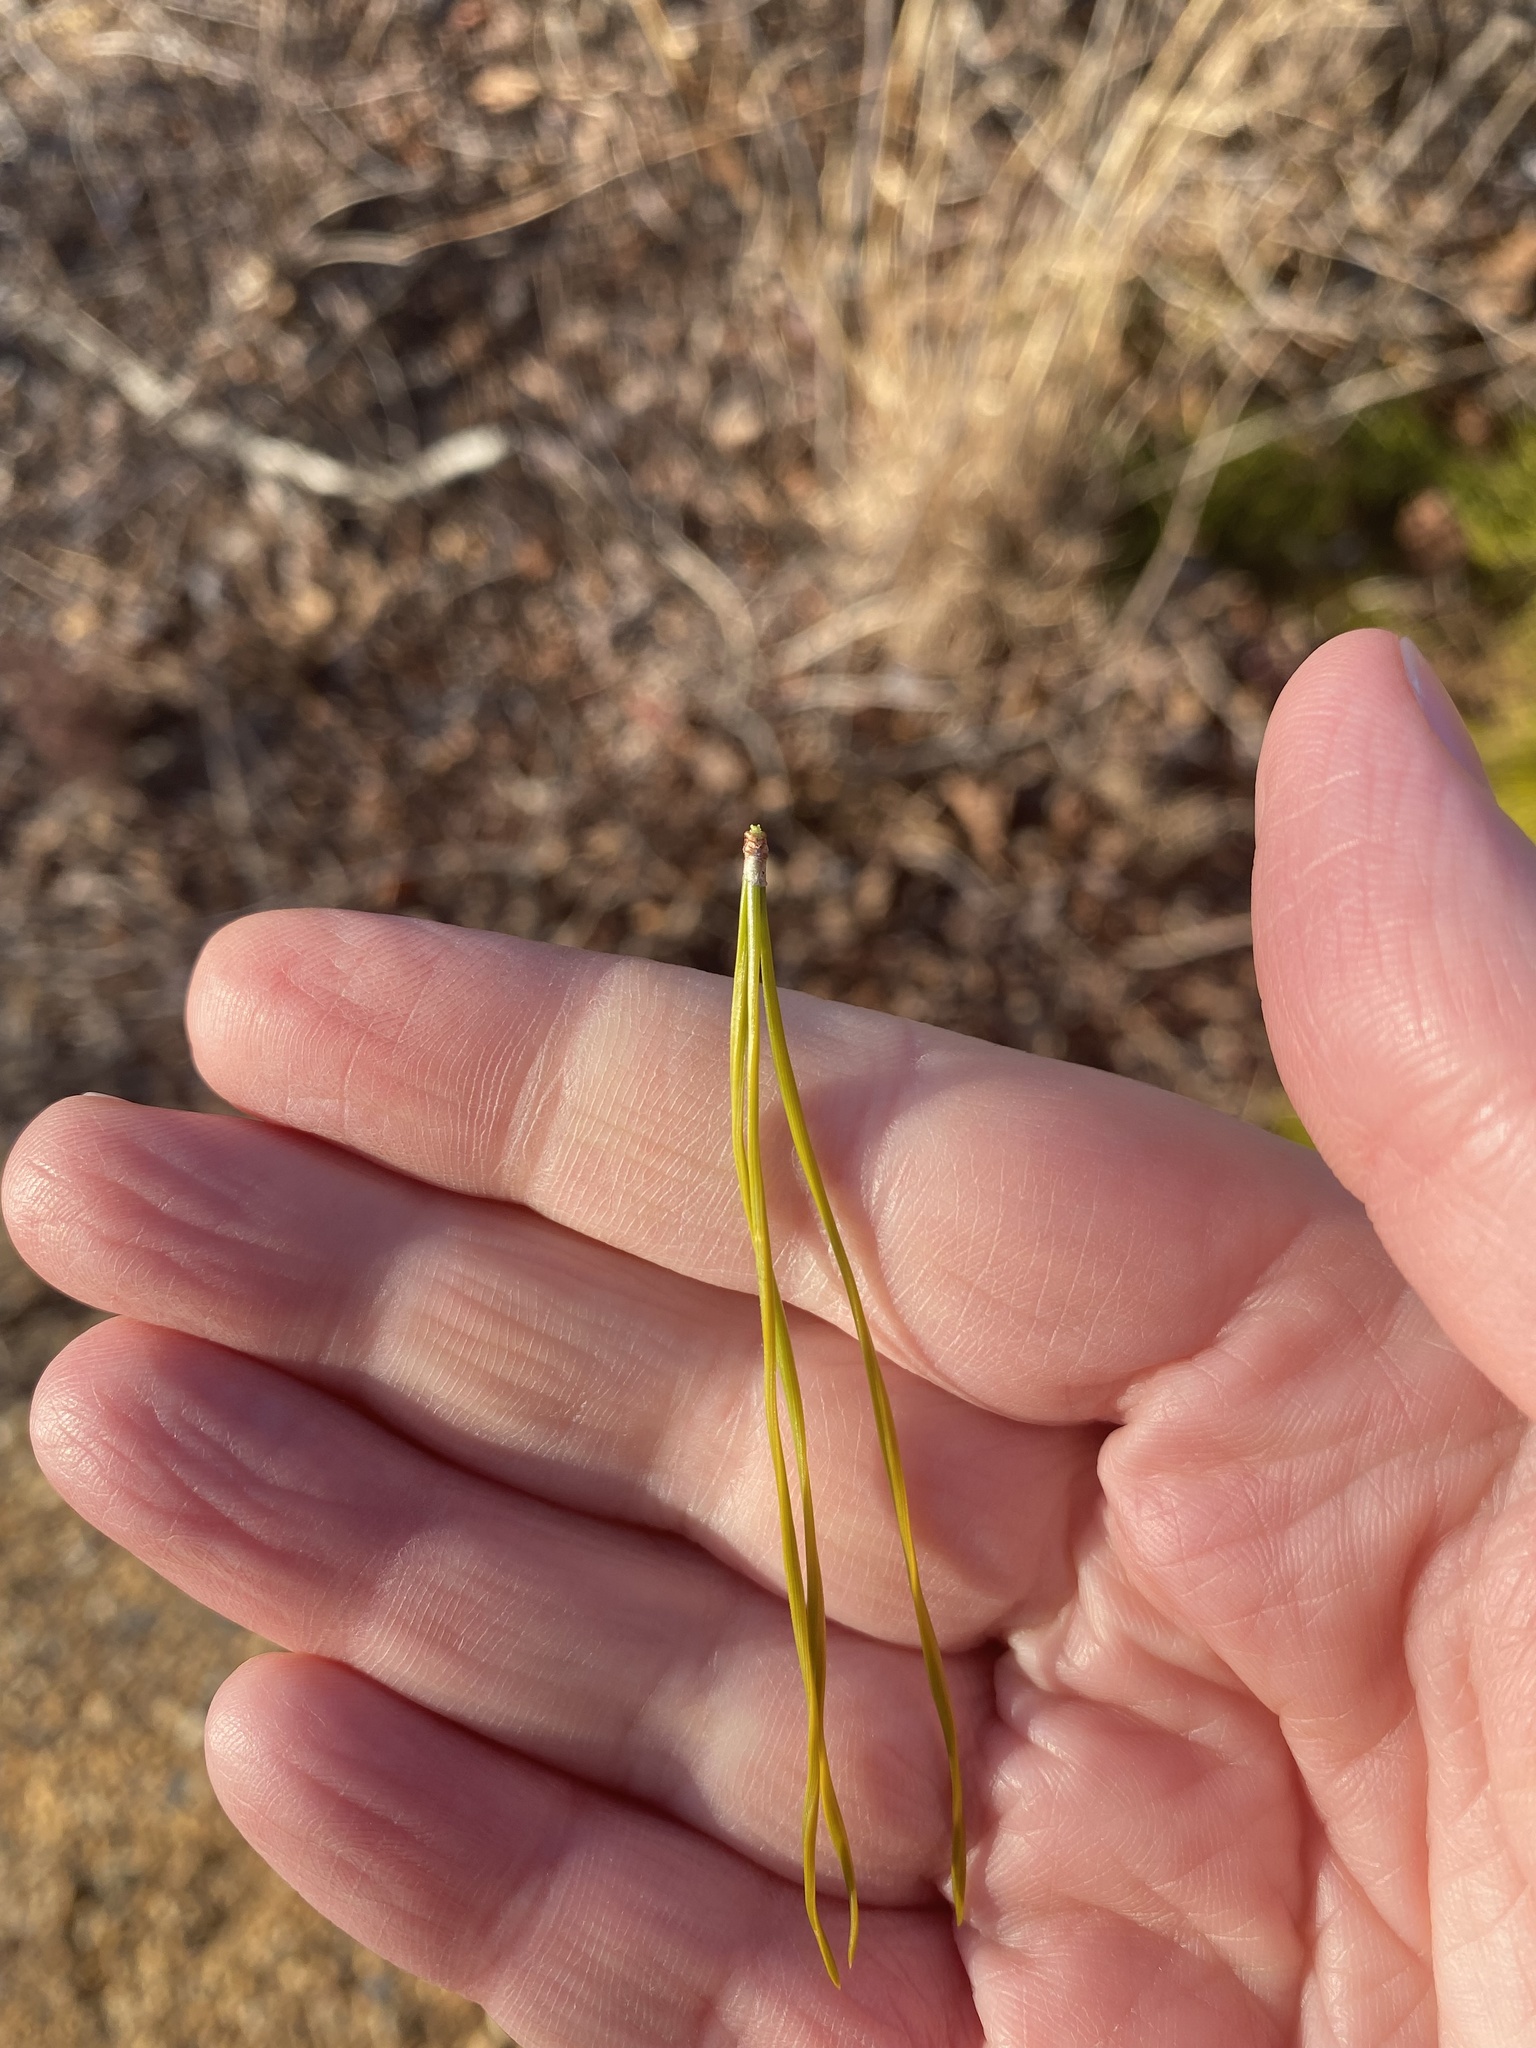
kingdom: Plantae
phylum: Tracheophyta
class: Pinopsida
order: Pinales
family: Pinaceae
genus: Pinus
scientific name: Pinus rigida
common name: Pitch pine
